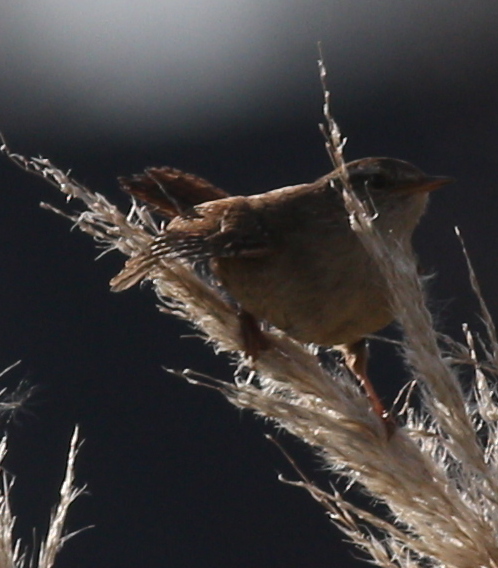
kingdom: Animalia
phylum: Chordata
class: Aves
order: Passeriformes
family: Troglodytidae
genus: Troglodytes
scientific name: Troglodytes troglodytes
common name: Eurasian wren
